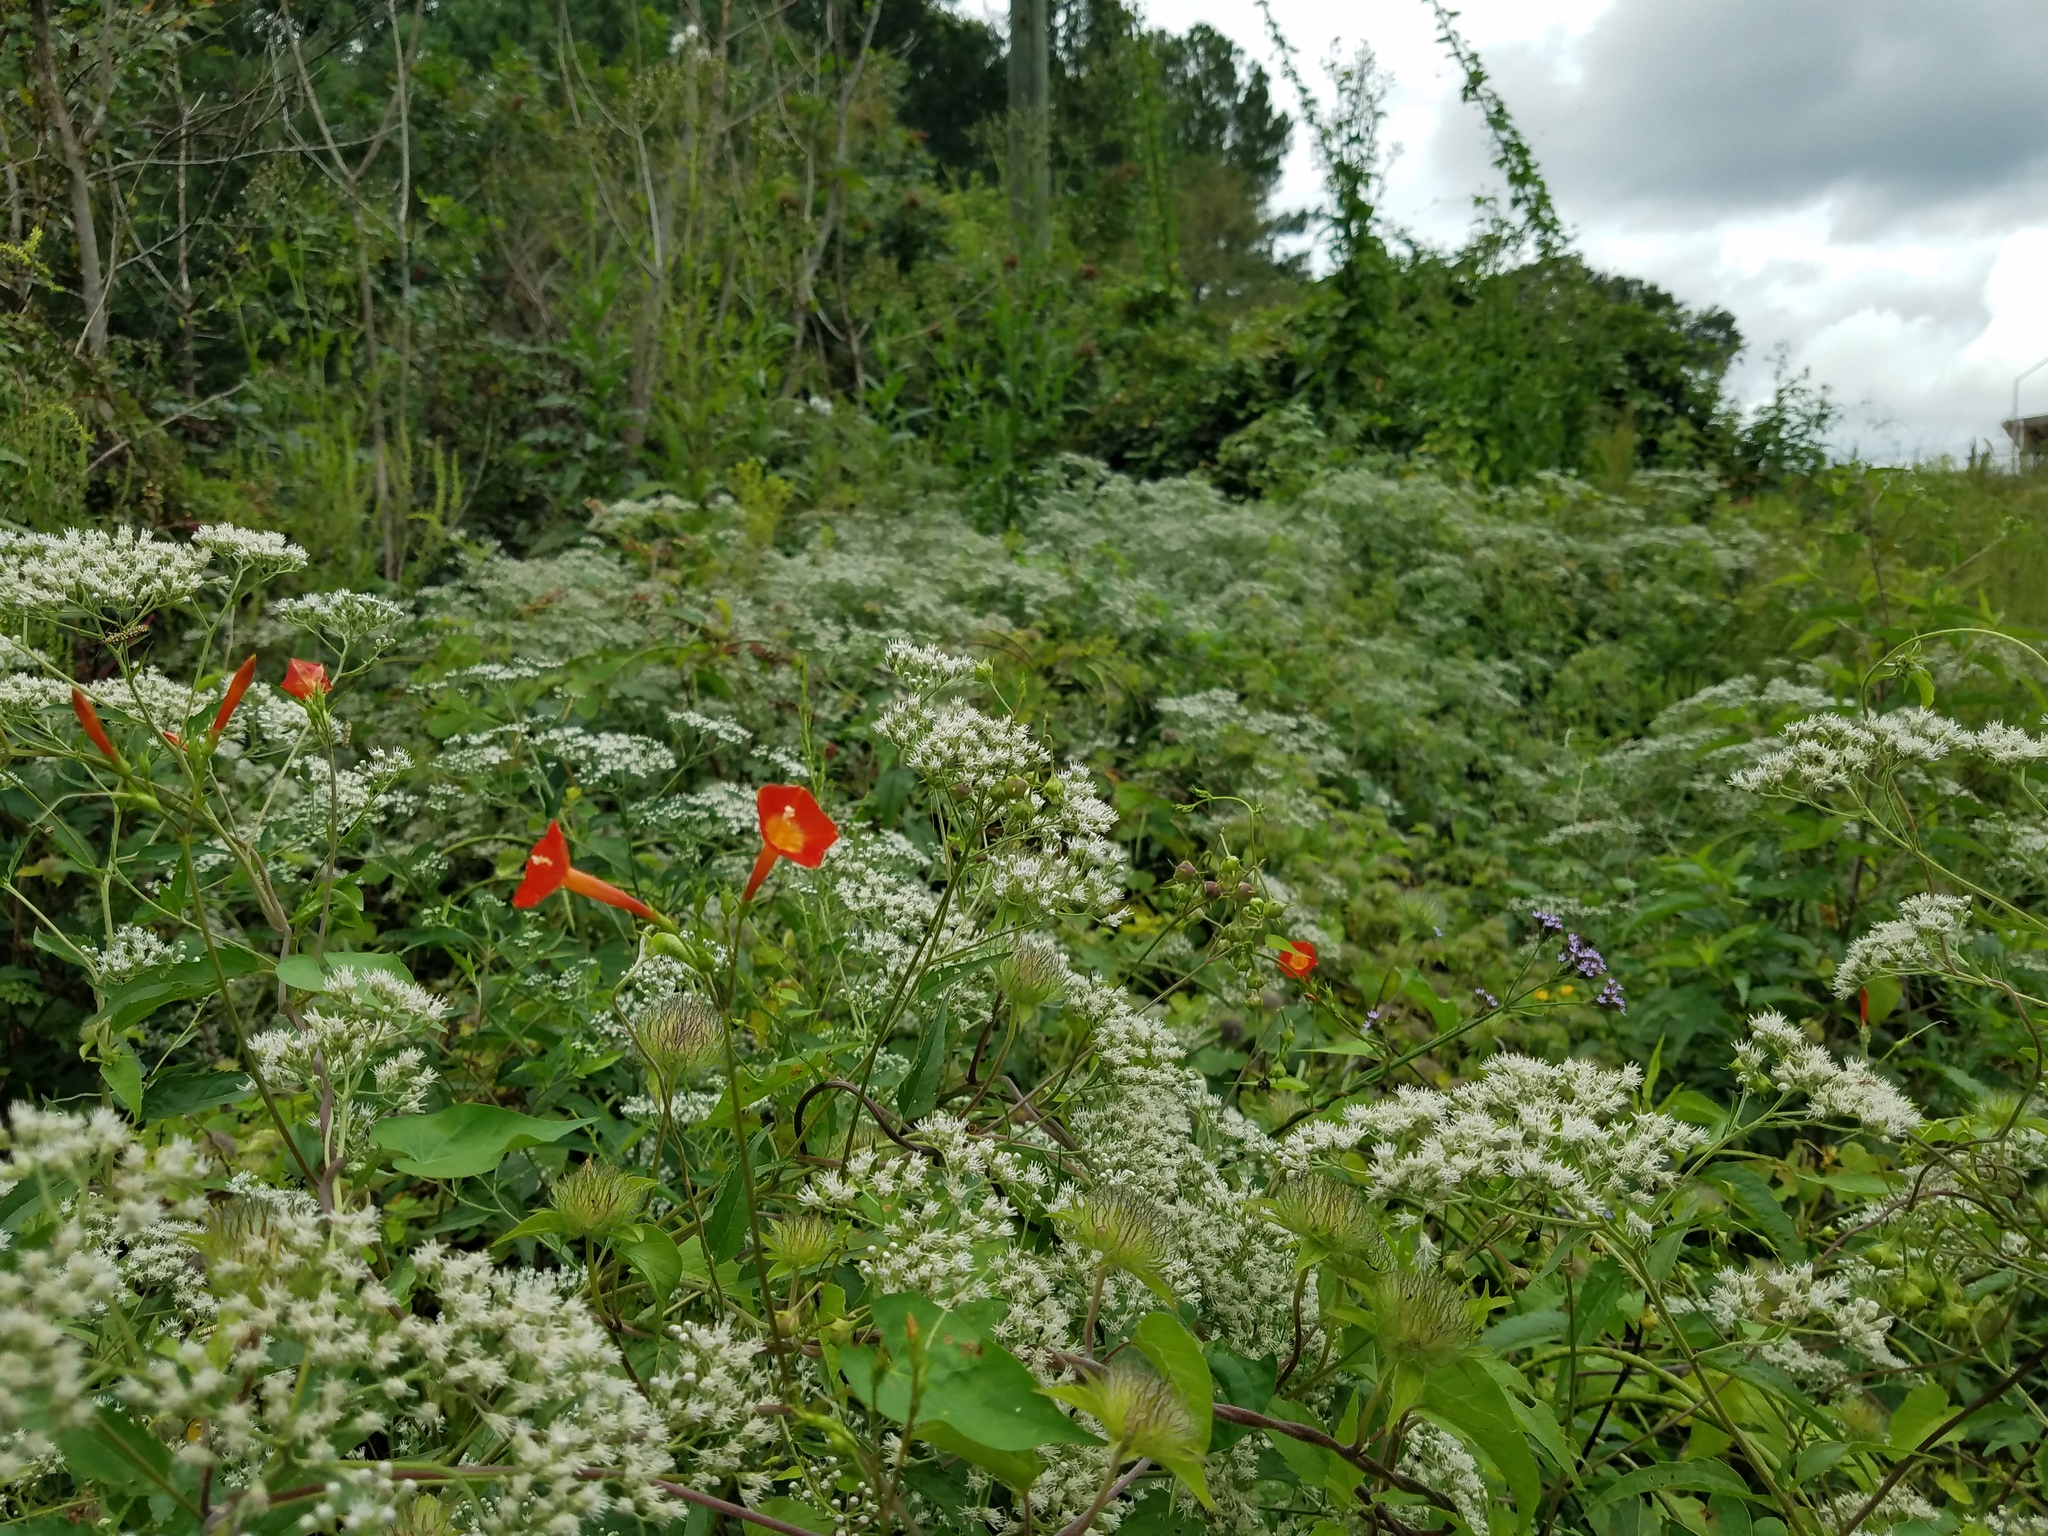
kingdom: Plantae
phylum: Tracheophyta
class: Magnoliopsida
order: Asterales
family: Asteraceae
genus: Eupatorium
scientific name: Eupatorium serotinum
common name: Late boneset
